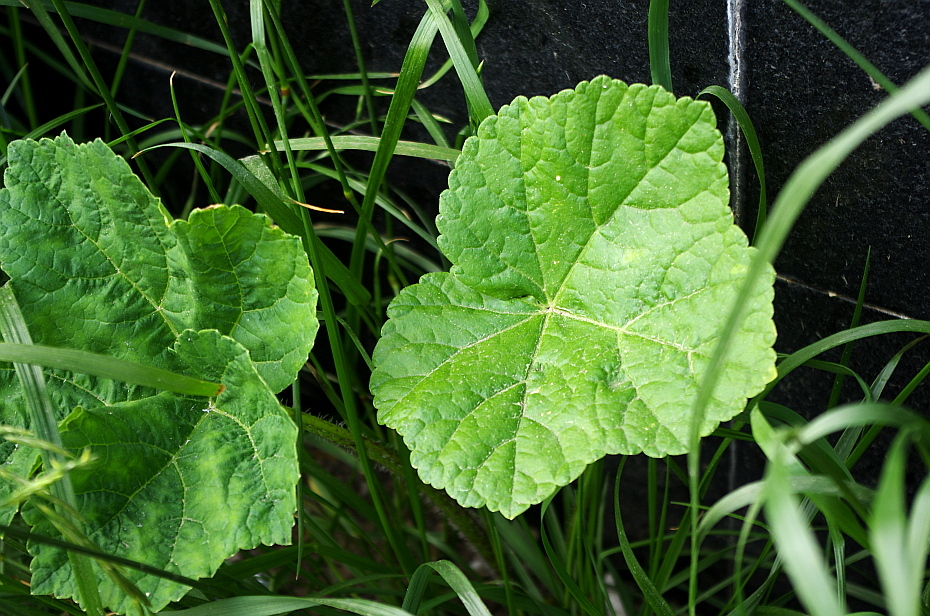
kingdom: Plantae
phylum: Tracheophyta
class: Magnoliopsida
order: Apiales
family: Apiaceae
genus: Heracleum
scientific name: Heracleum sosnowskyi
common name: Sosnowsky's hogweed
